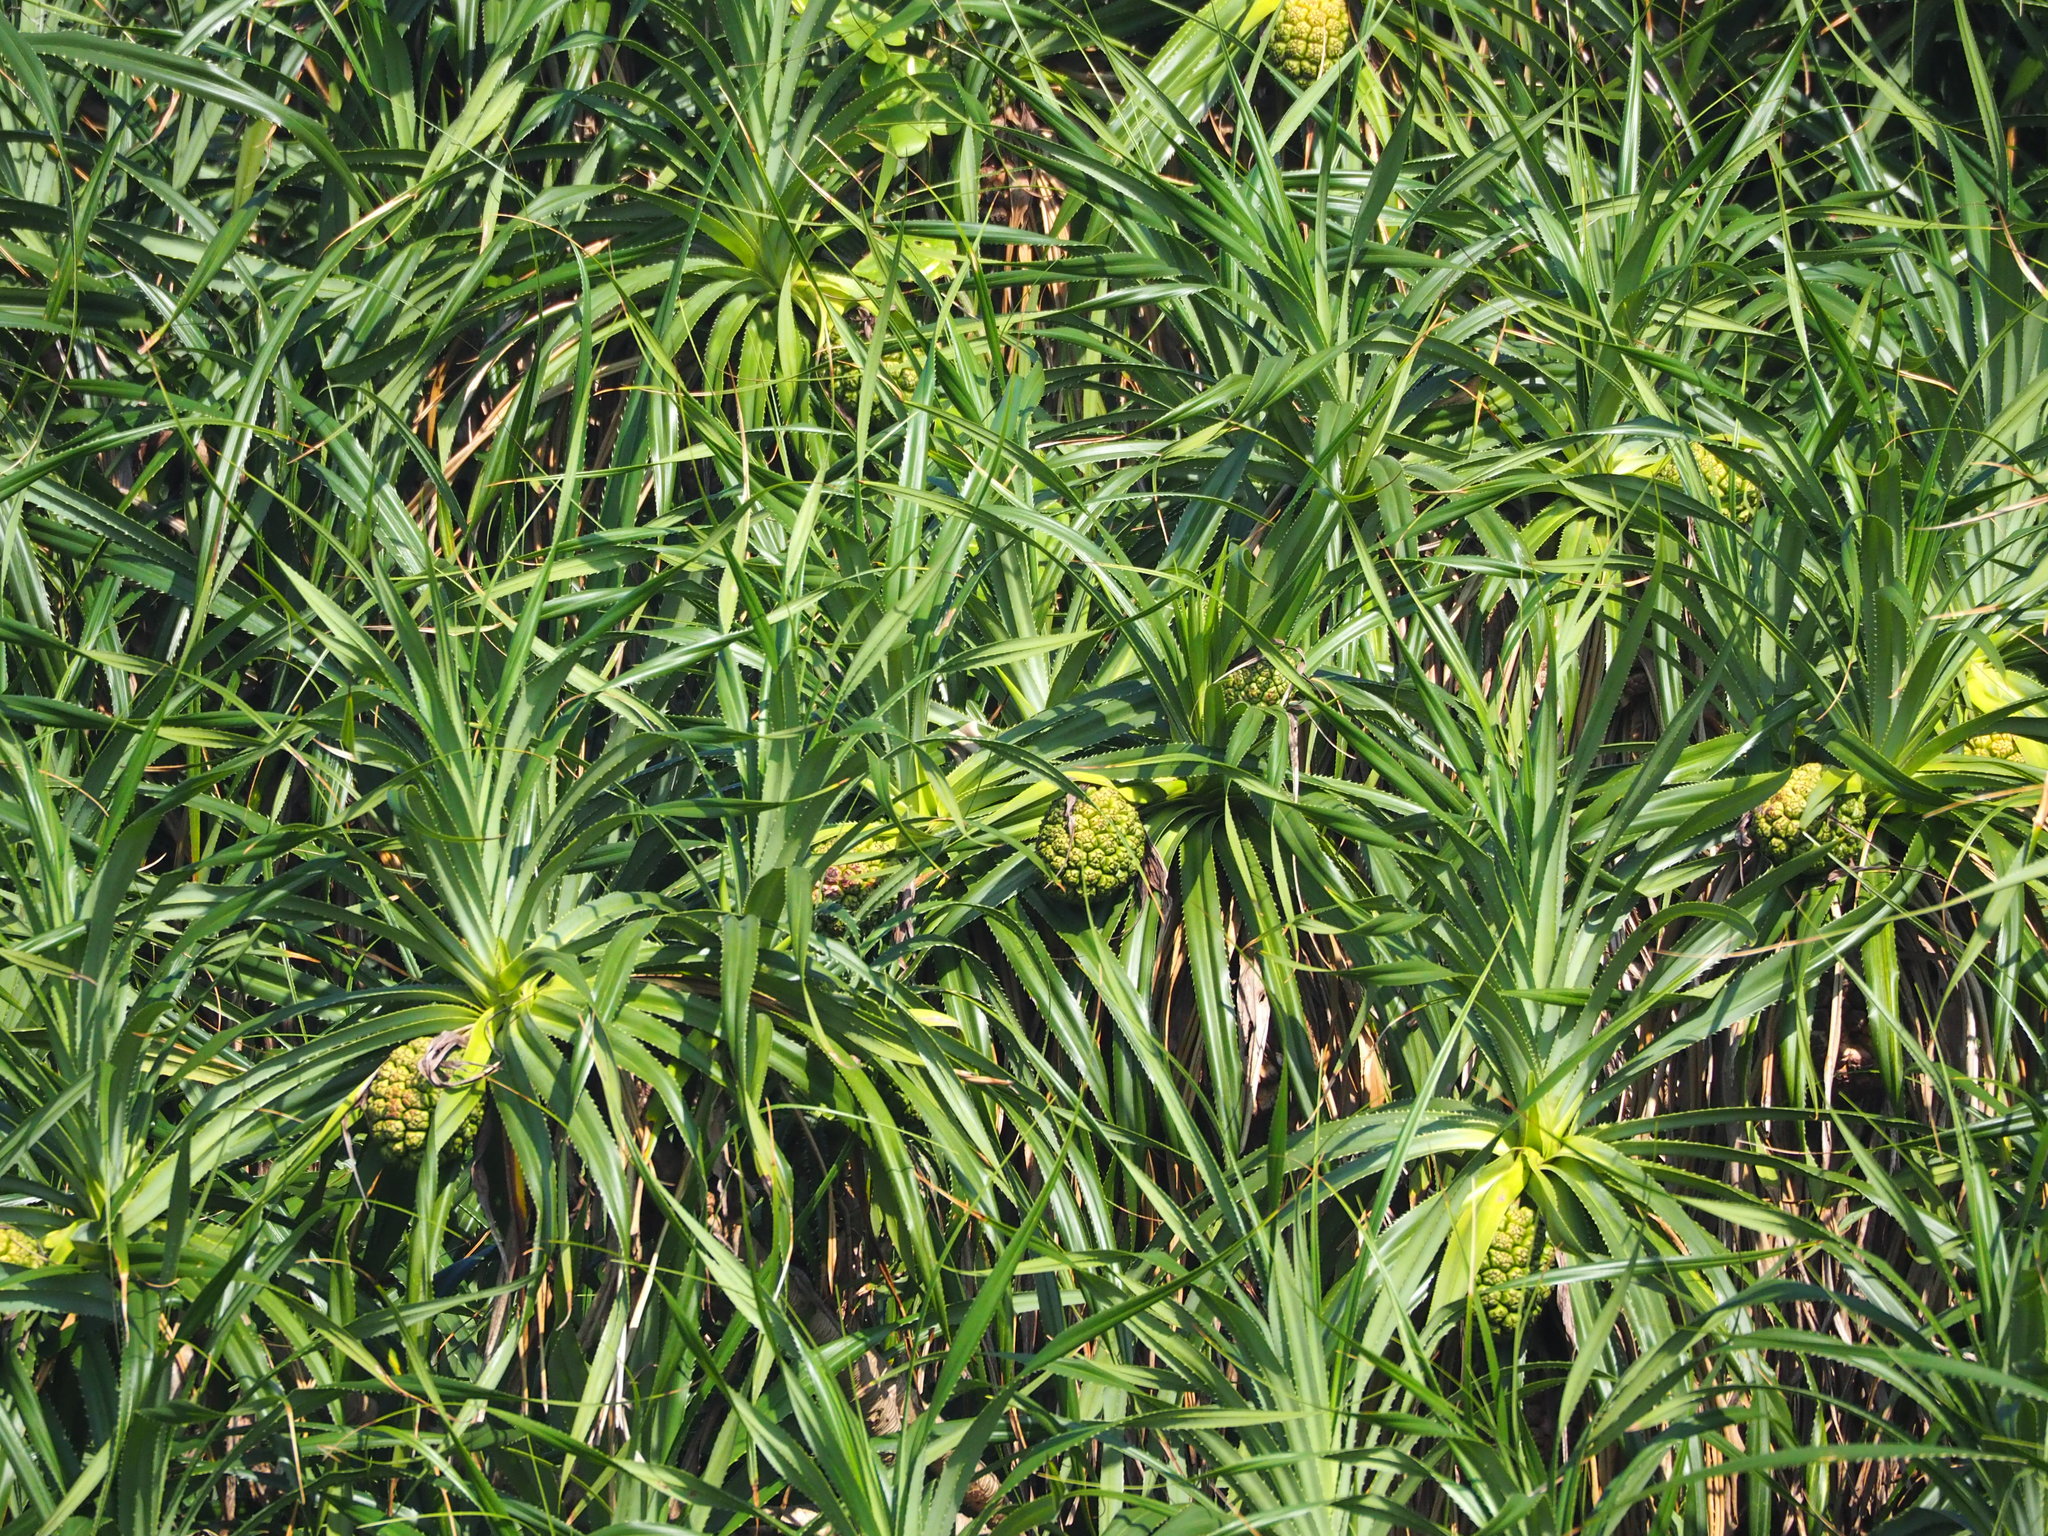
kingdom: Plantae
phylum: Tracheophyta
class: Liliopsida
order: Pandanales
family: Pandanaceae
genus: Pandanus
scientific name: Pandanus odorifer
